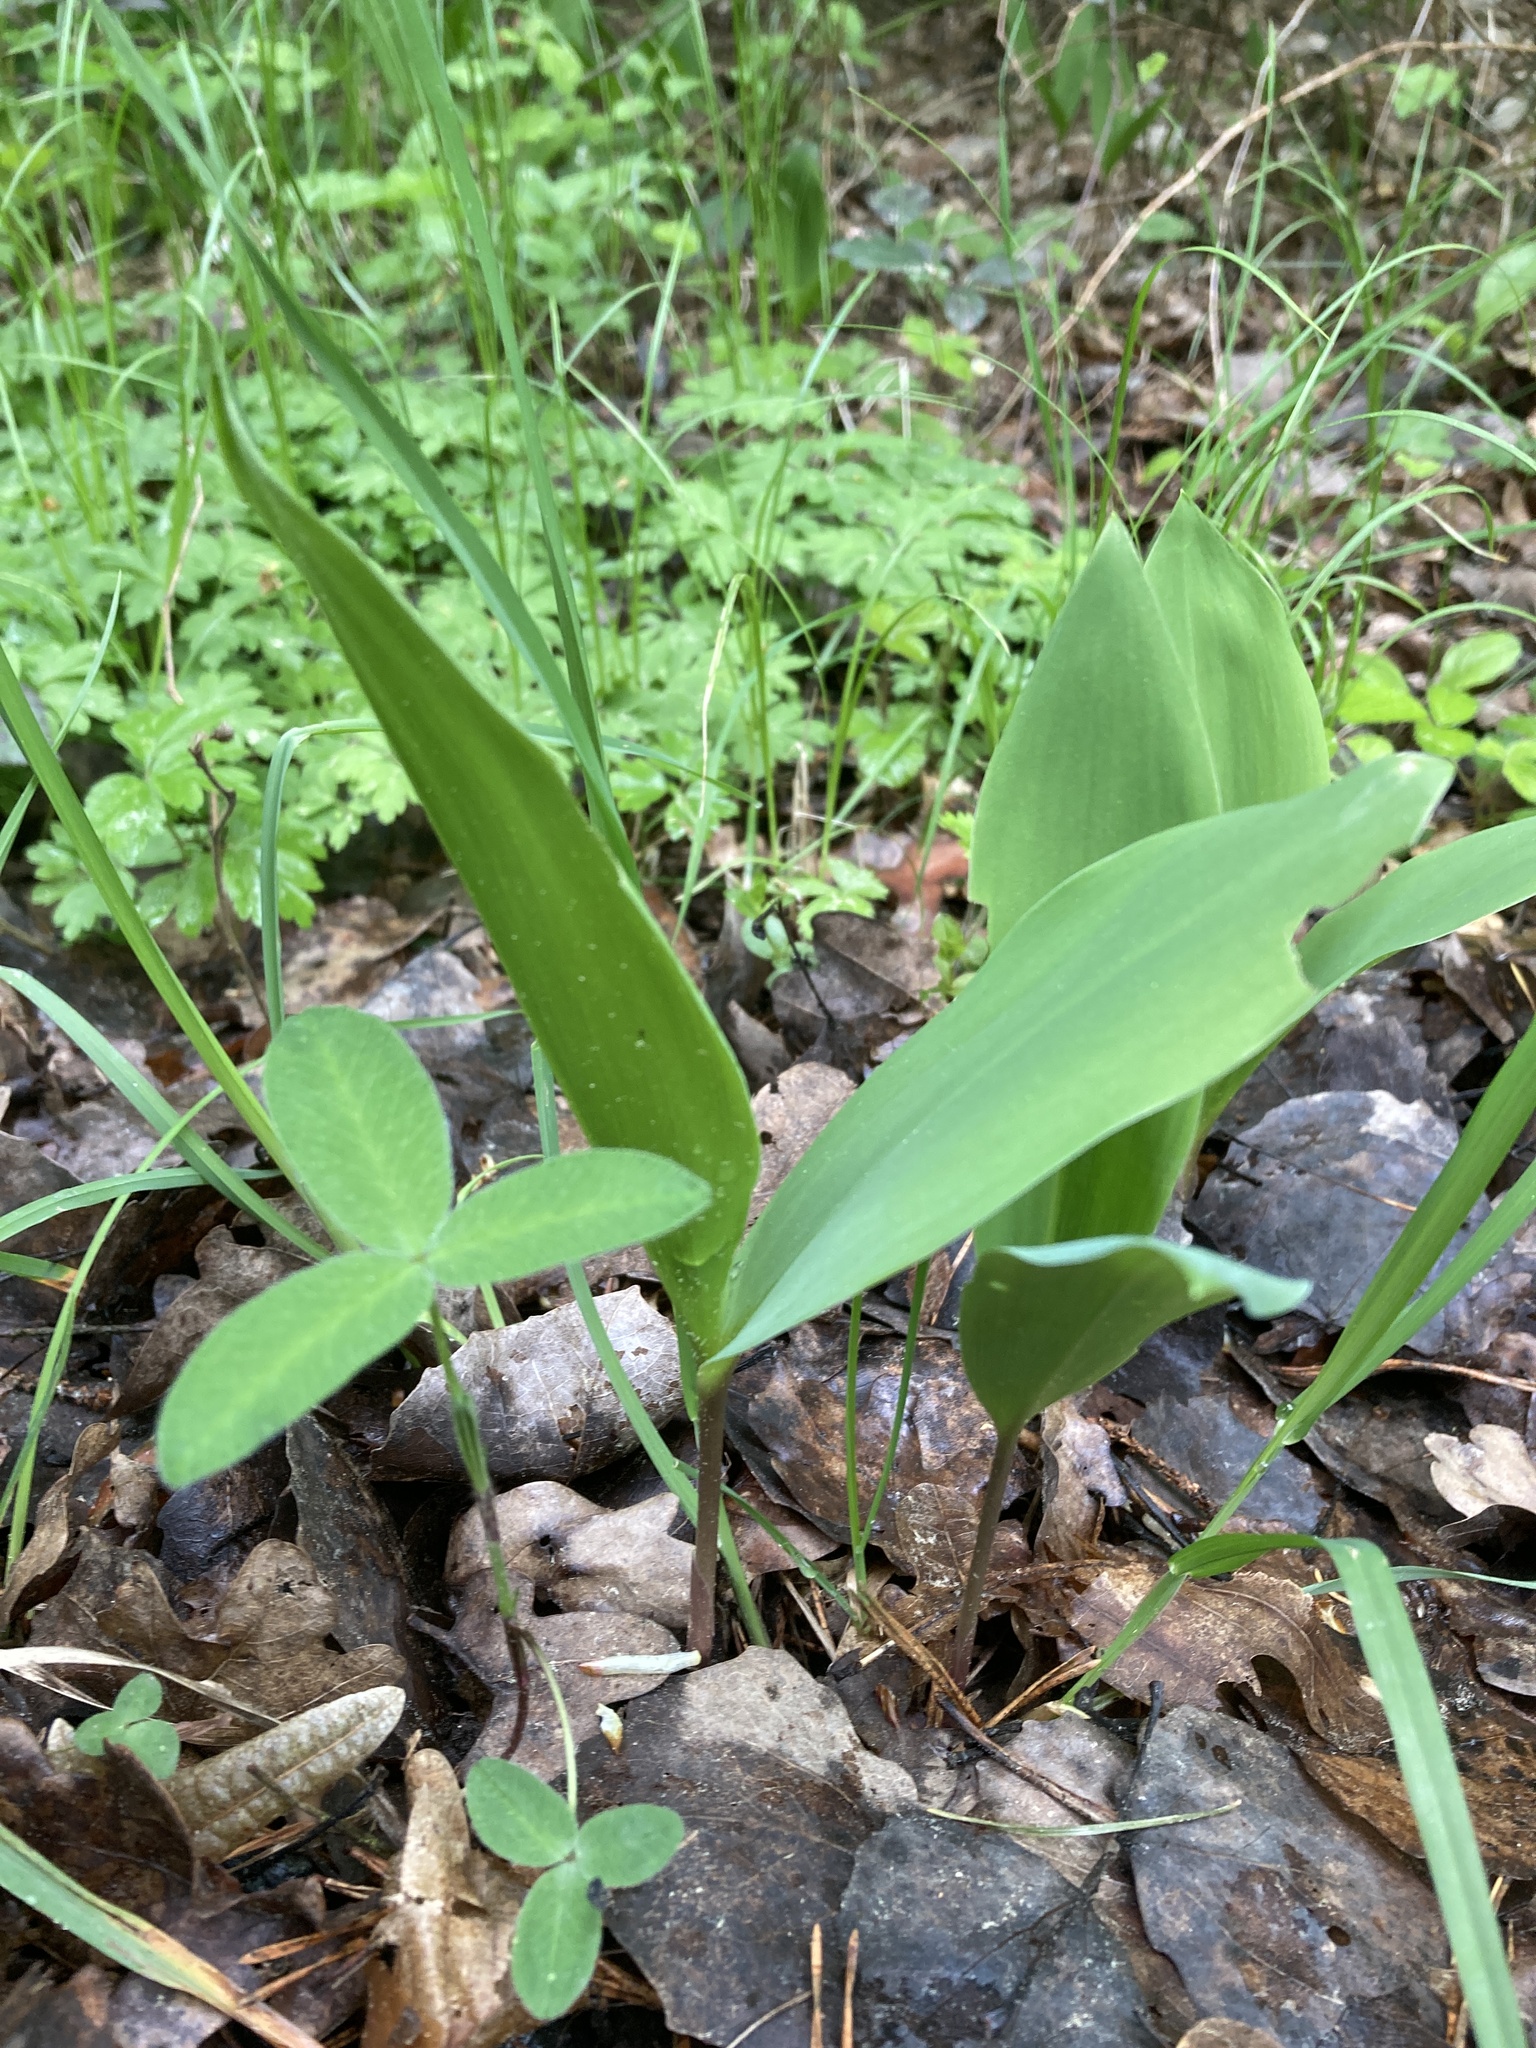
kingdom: Plantae
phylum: Tracheophyta
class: Liliopsida
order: Asparagales
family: Asparagaceae
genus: Convallaria
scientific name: Convallaria majalis
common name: Lily-of-the-valley
